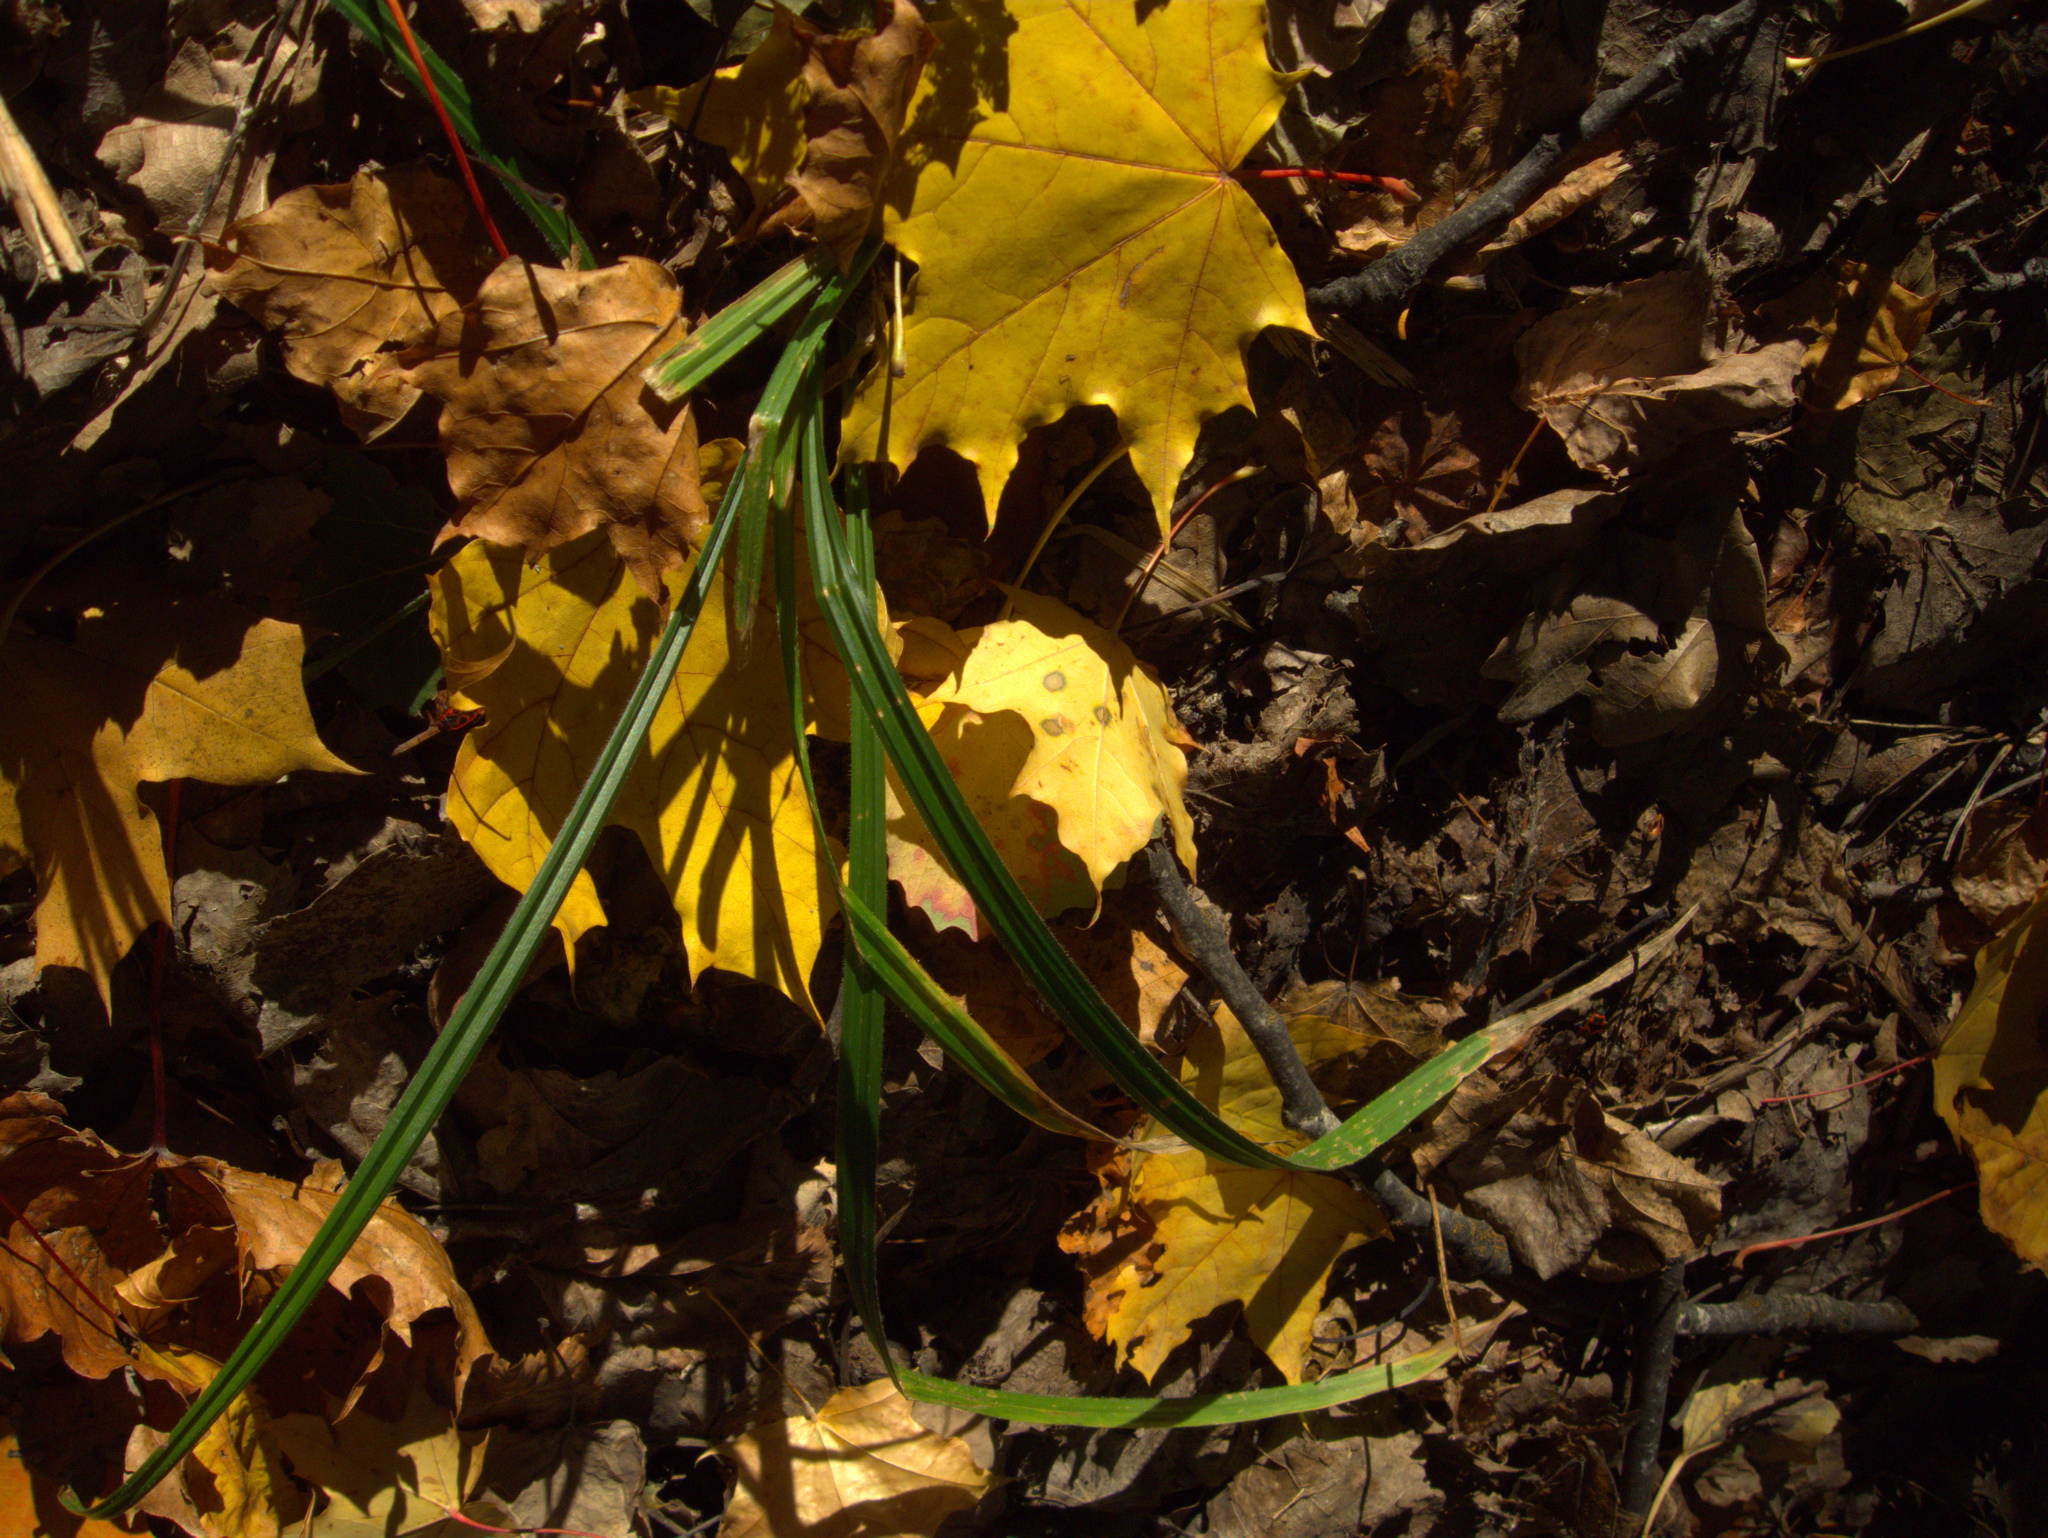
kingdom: Plantae
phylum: Tracheophyta
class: Liliopsida
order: Poales
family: Cyperaceae
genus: Carex
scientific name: Carex pilosa
